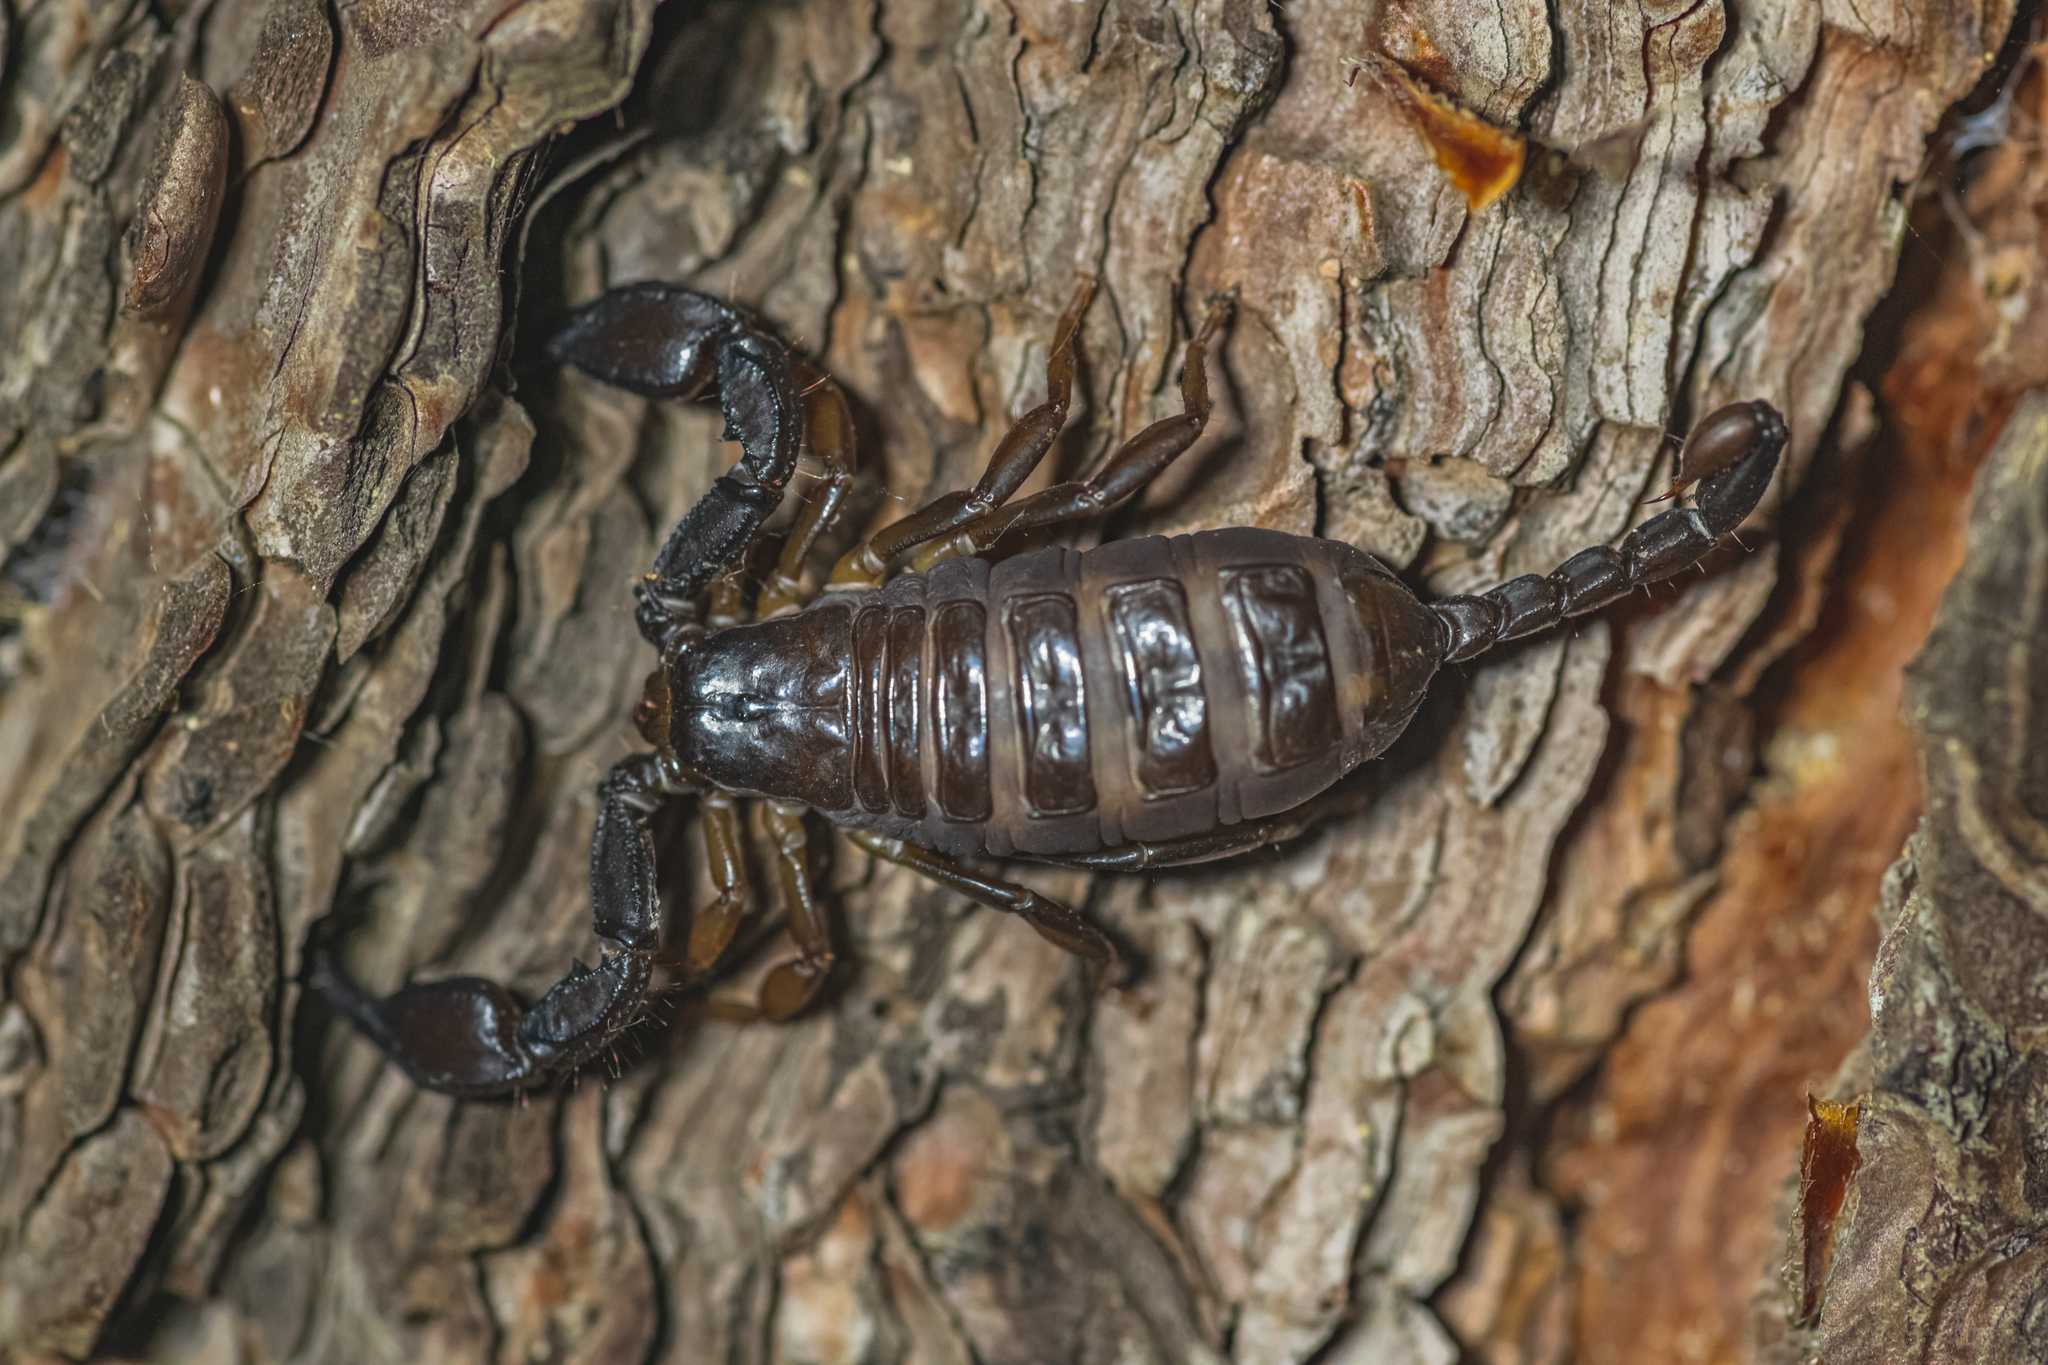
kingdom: Animalia
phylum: Arthropoda
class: Arachnida
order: Scorpiones
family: Euscorpiidae
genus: Euscorpius
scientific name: Euscorpius italicus
